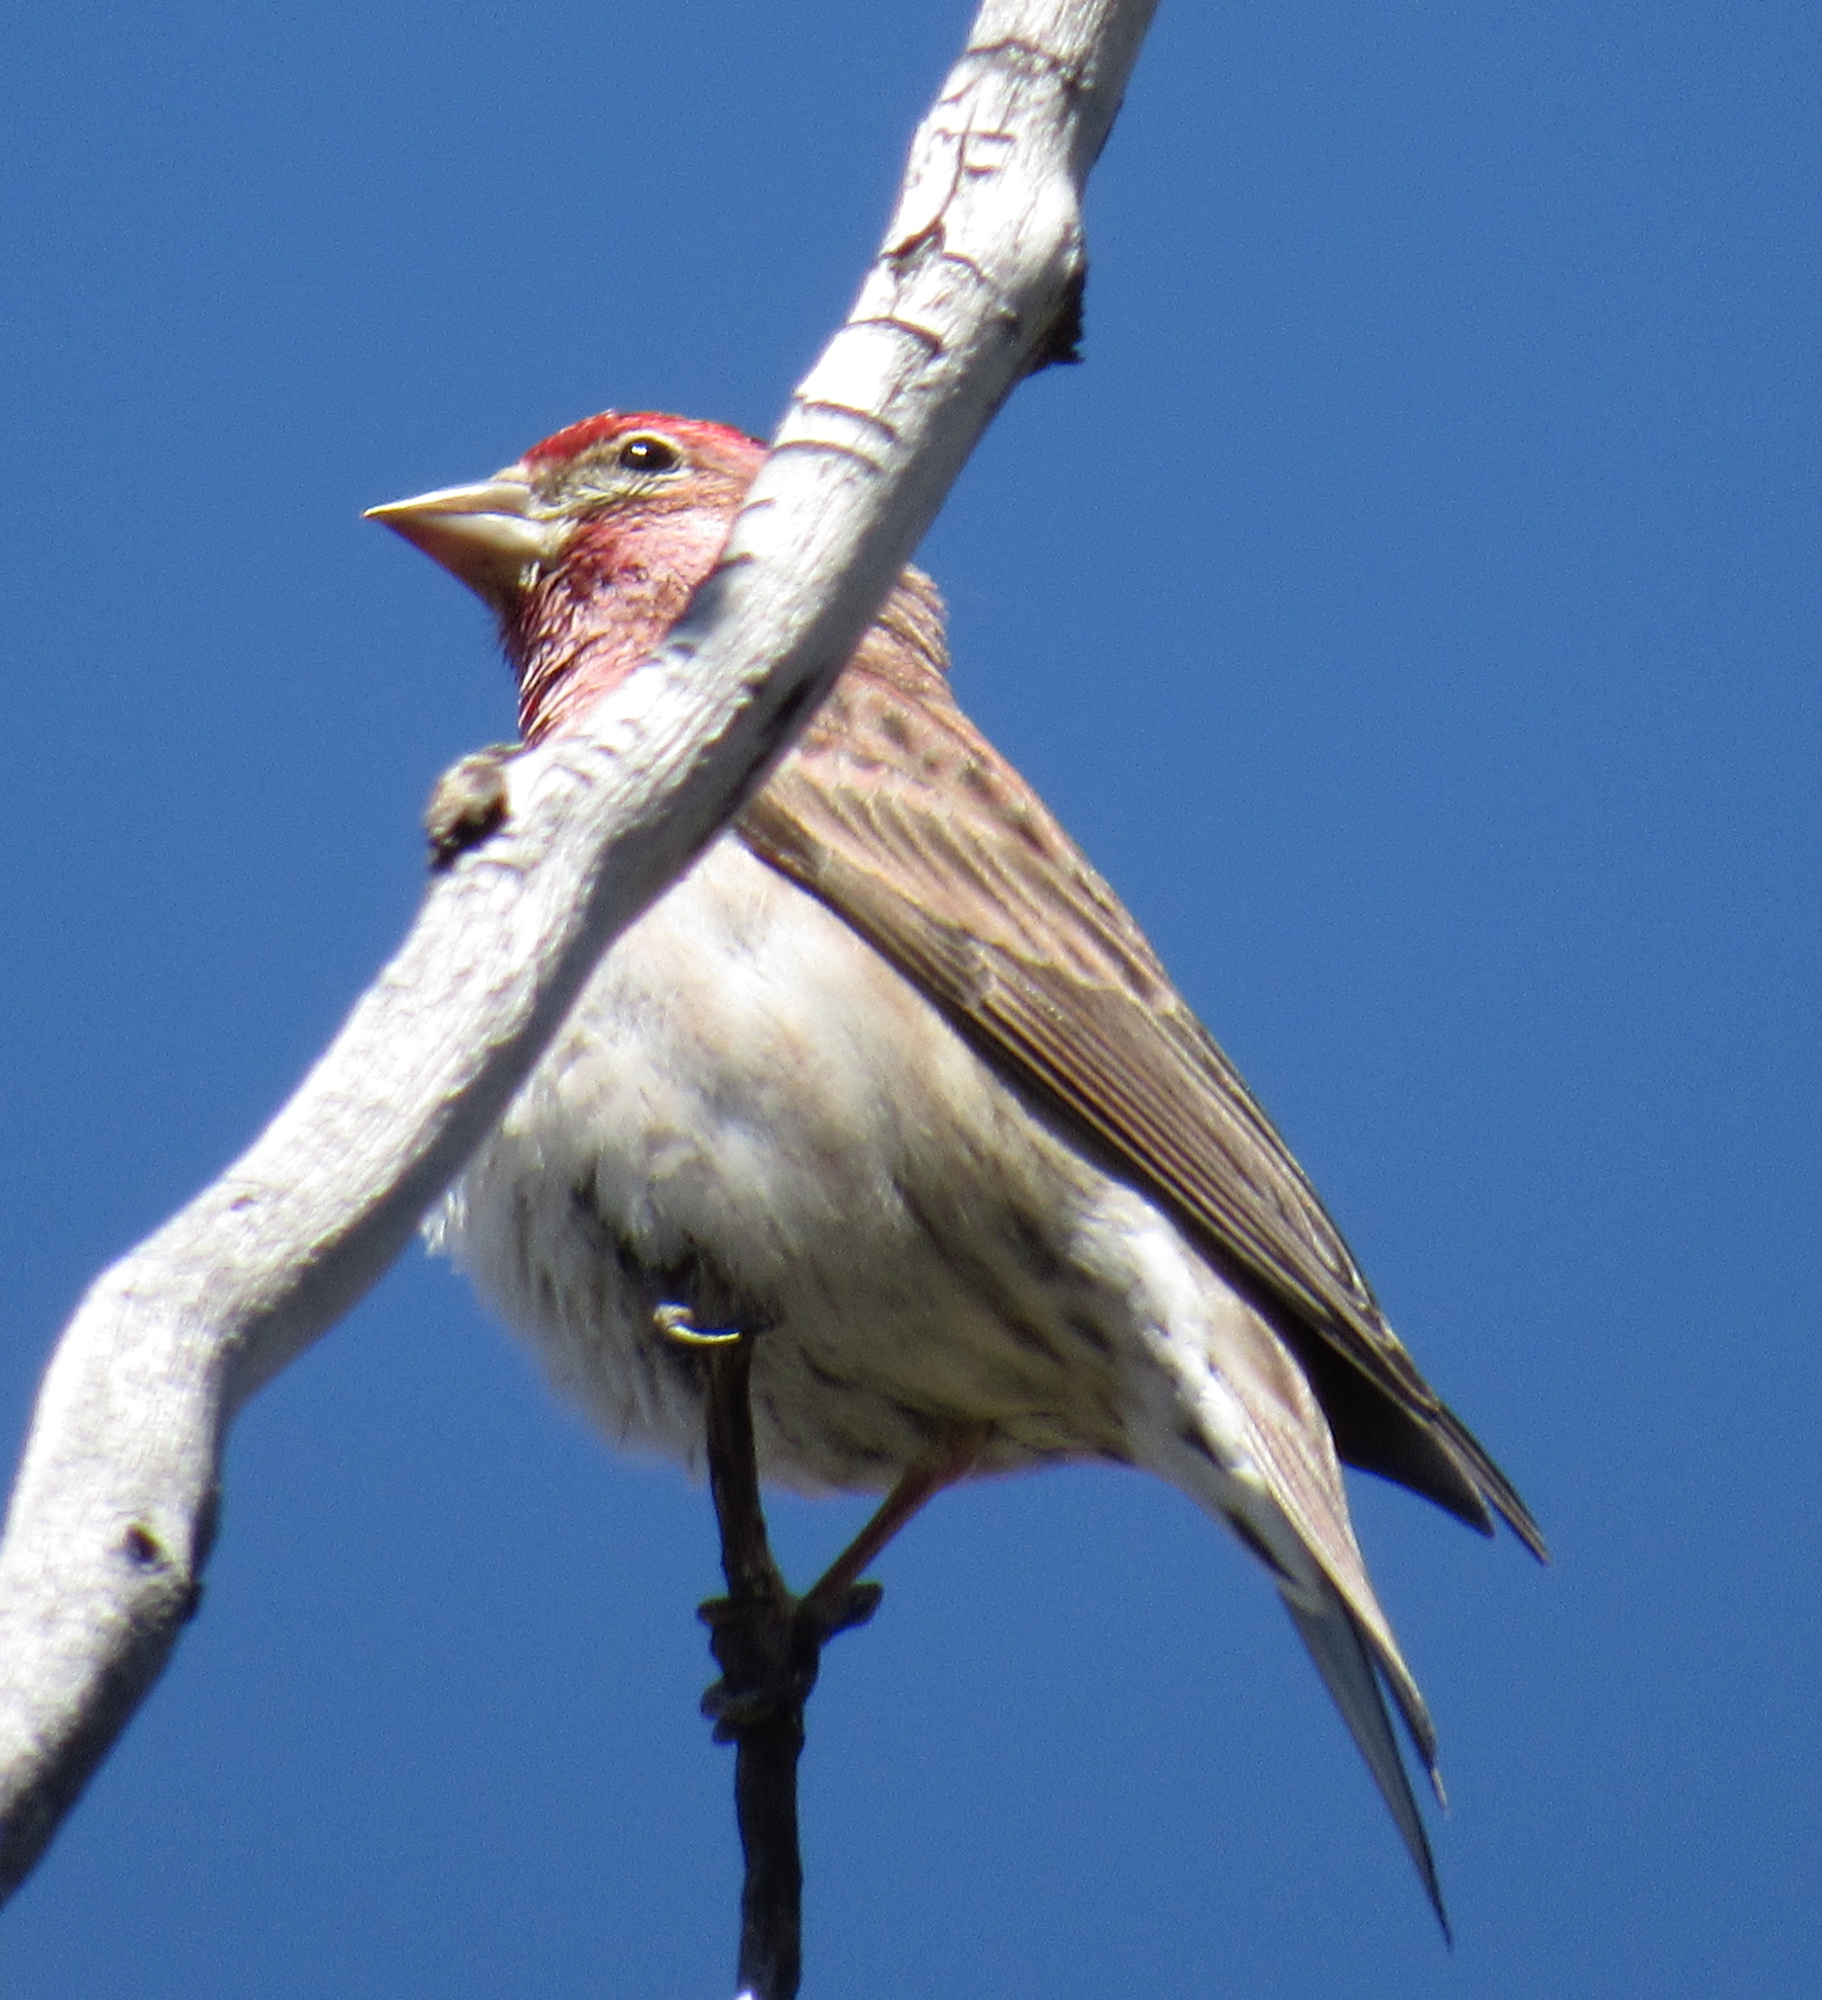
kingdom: Animalia
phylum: Chordata
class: Aves
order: Passeriformes
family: Fringillidae
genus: Haemorhous
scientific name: Haemorhous cassinii
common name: Cassin's finch
